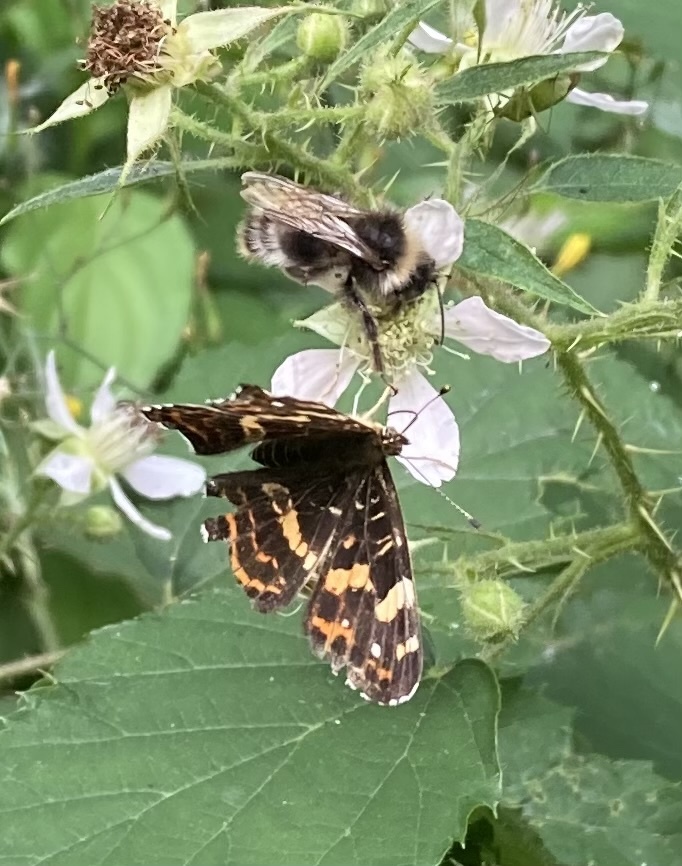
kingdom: Animalia
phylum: Arthropoda
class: Insecta
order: Lepidoptera
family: Nymphalidae
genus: Araschnia
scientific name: Araschnia levana
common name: Map butterfly
